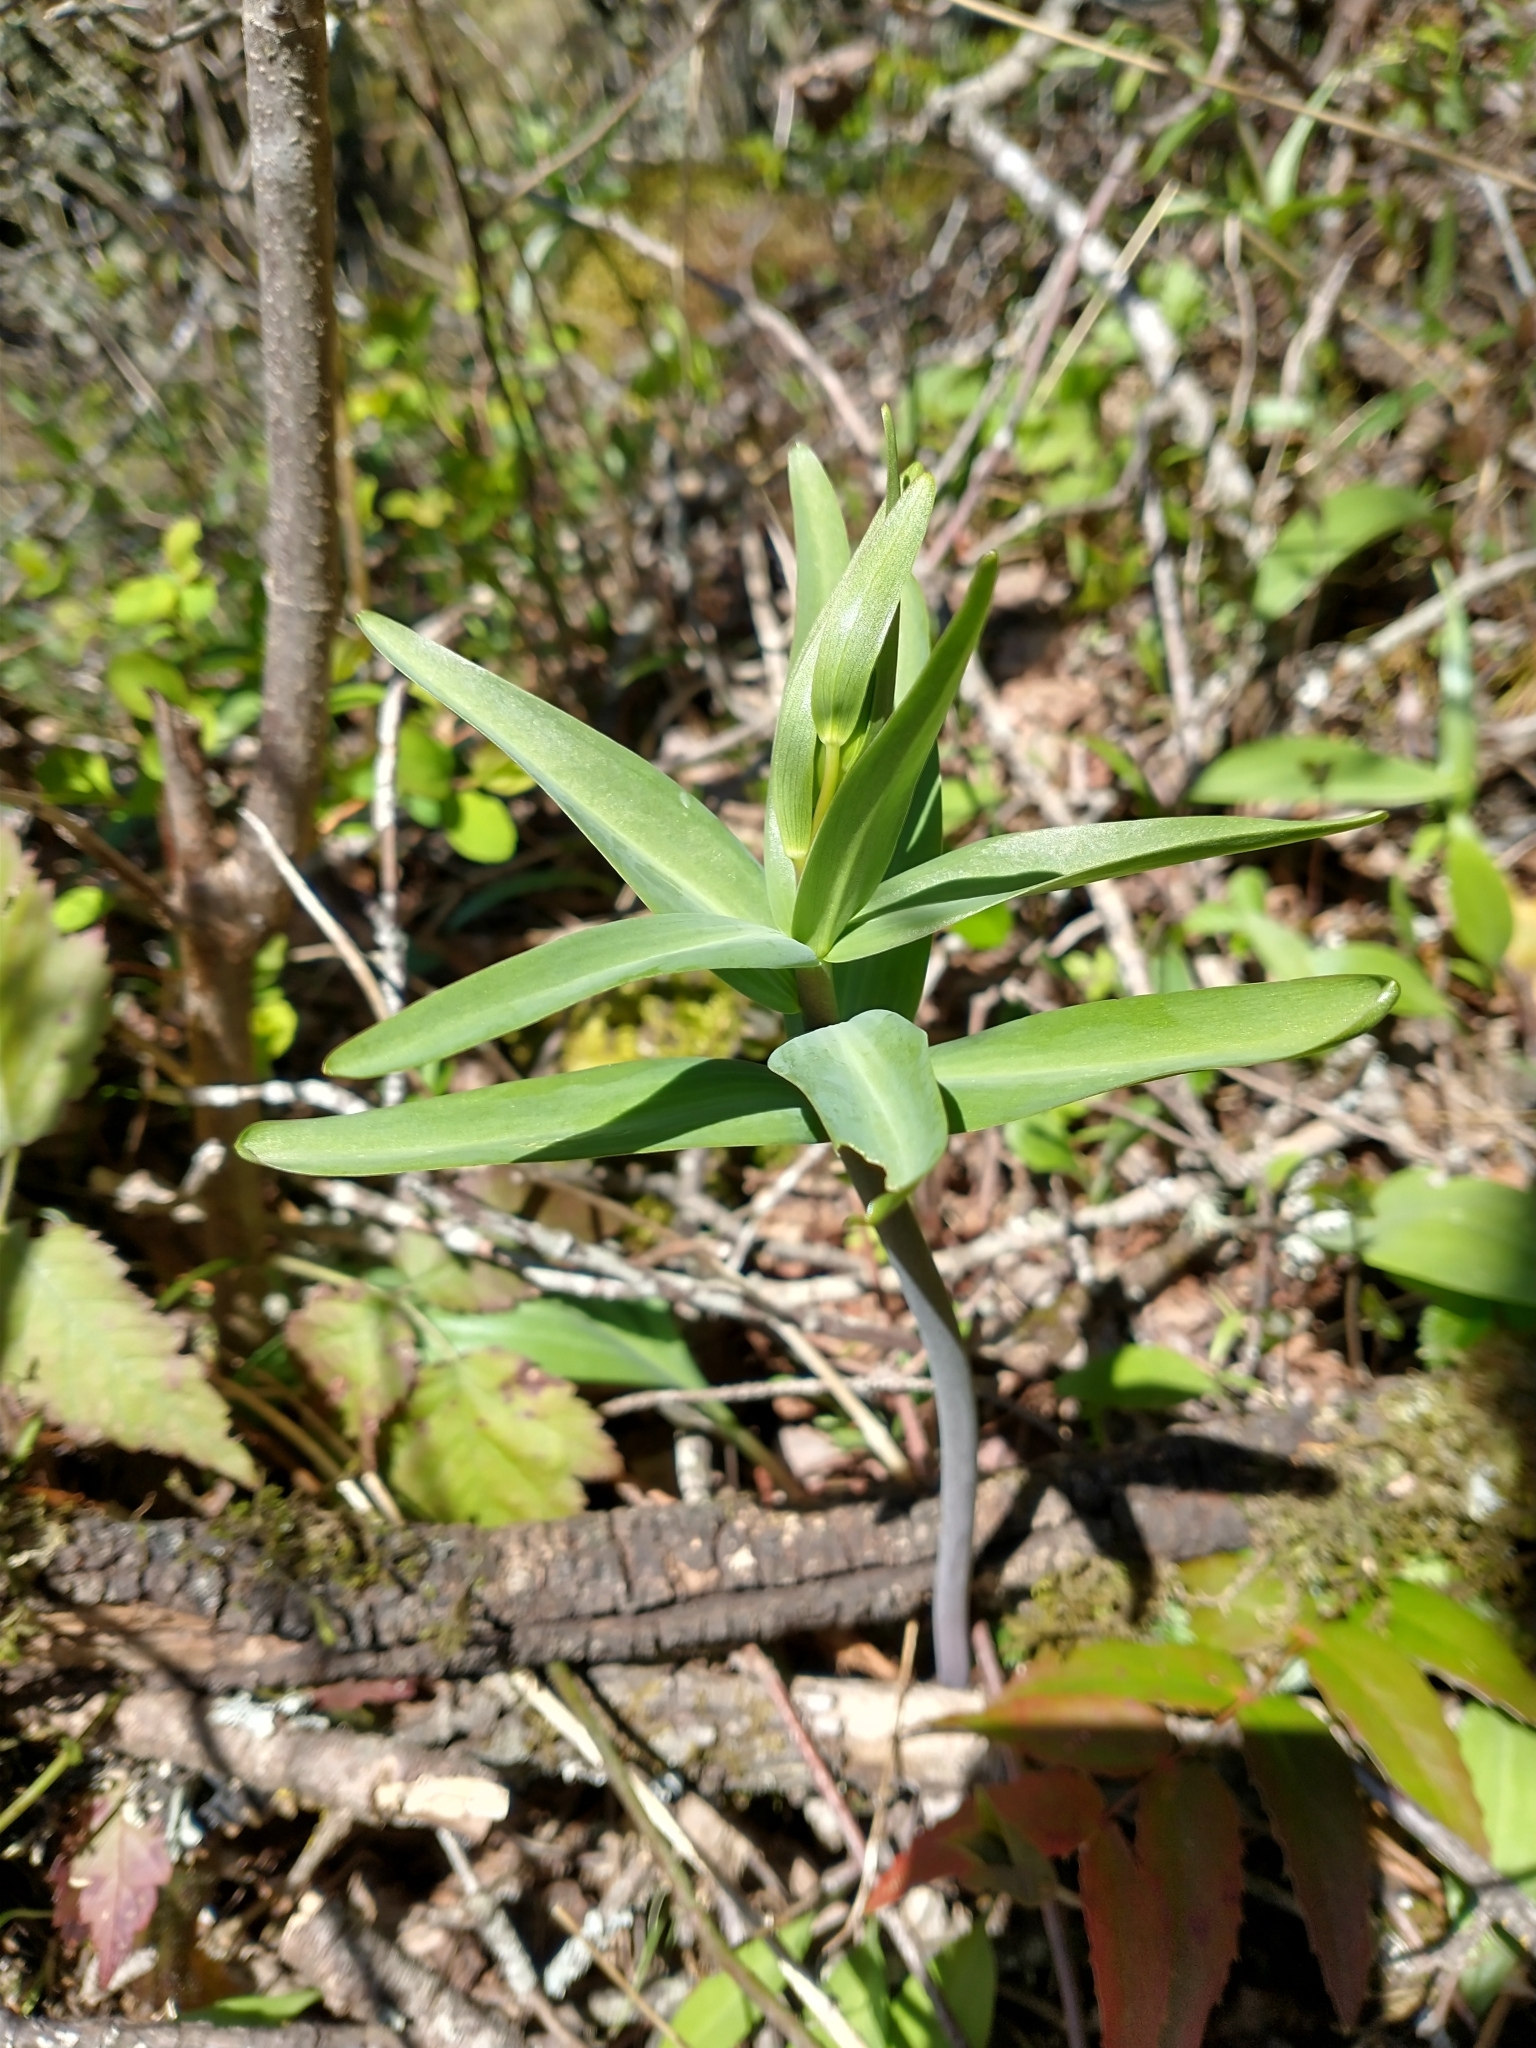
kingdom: Plantae
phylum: Tracheophyta
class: Liliopsida
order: Liliales
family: Liliaceae
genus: Fritillaria
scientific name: Fritillaria affinis
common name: Ojai fritillary
